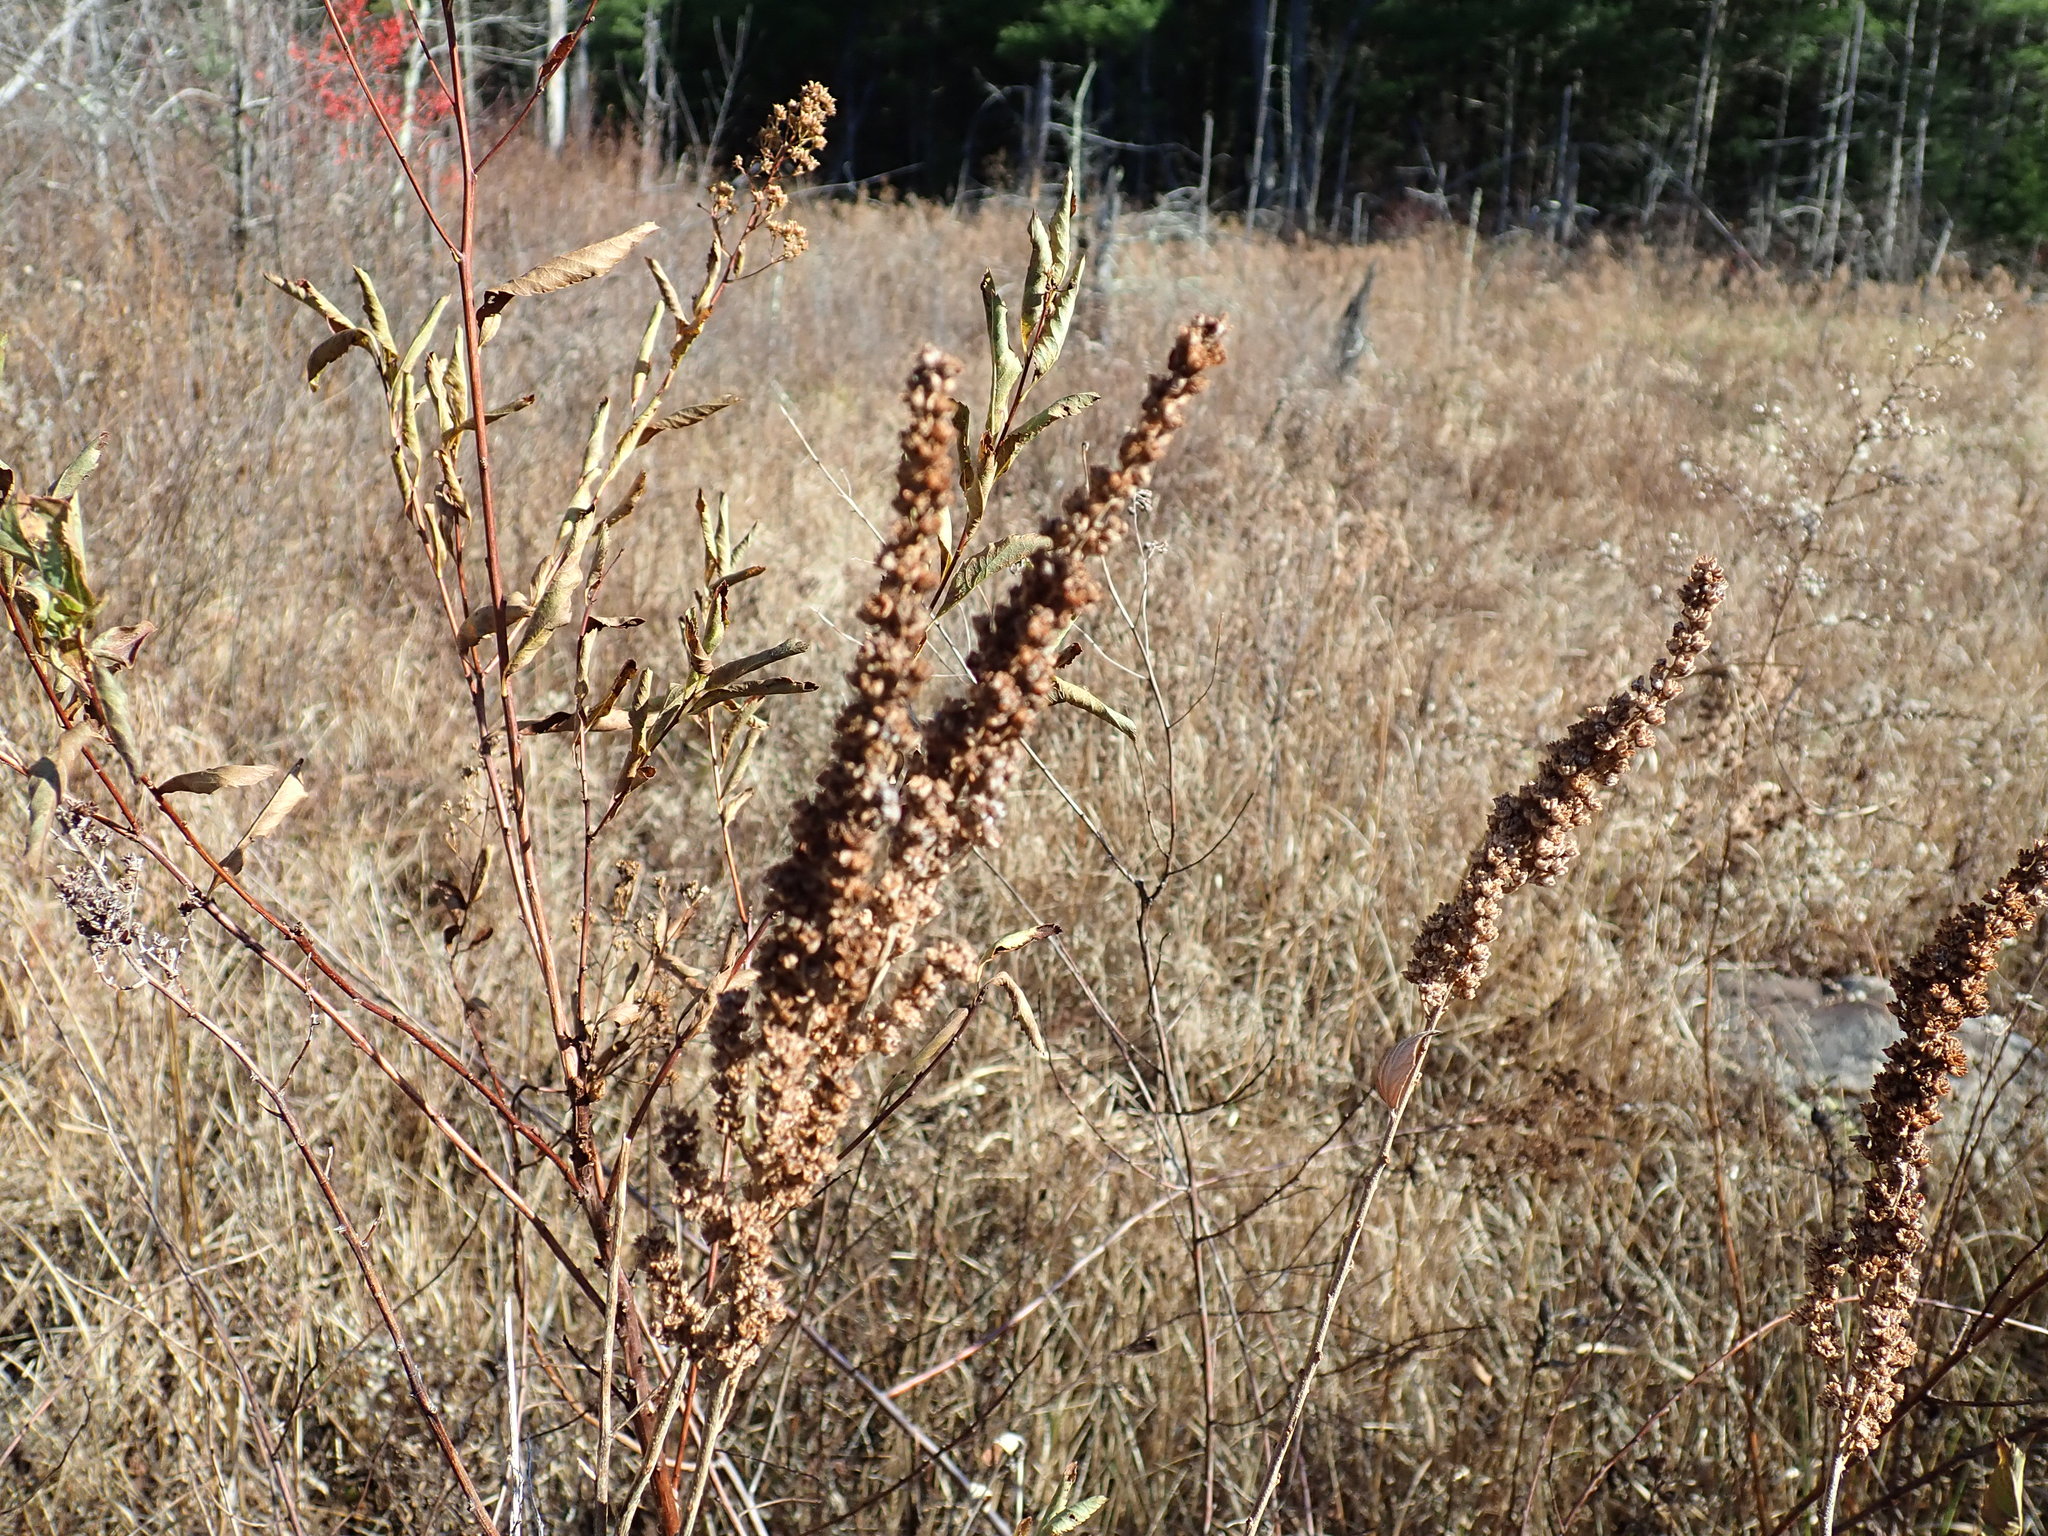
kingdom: Plantae
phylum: Tracheophyta
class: Magnoliopsida
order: Rosales
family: Rosaceae
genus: Spiraea
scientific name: Spiraea tomentosa
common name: Hardhack
